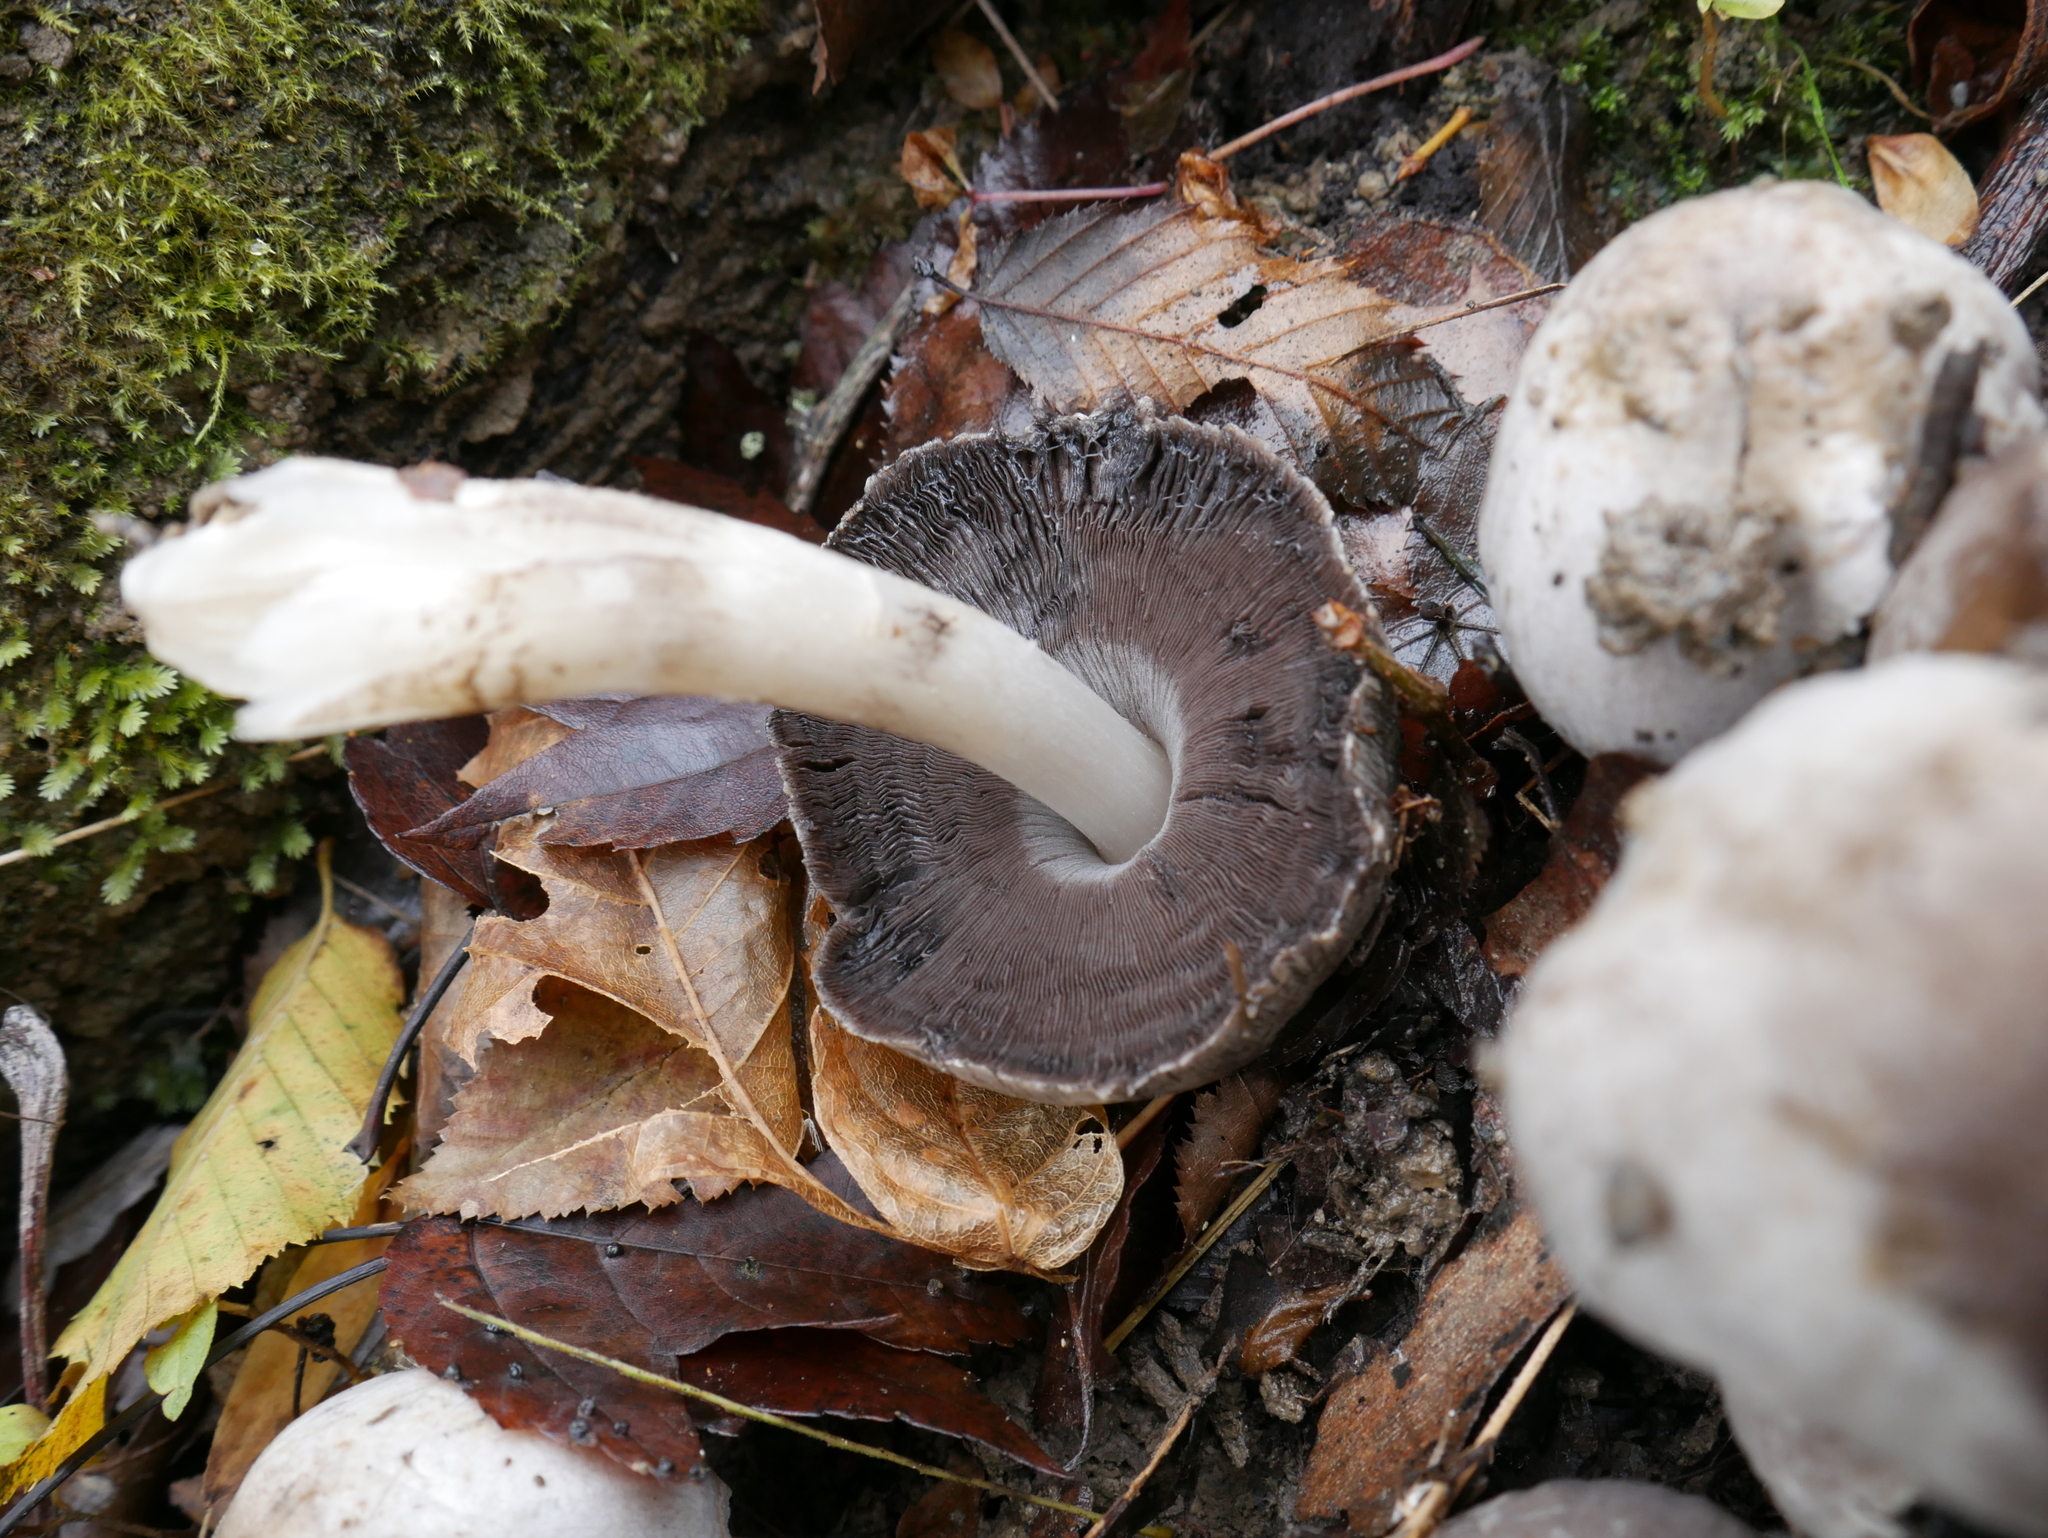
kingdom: Fungi
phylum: Basidiomycota
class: Agaricomycetes
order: Agaricales
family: Psathyrellaceae
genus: Coprinopsis
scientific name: Coprinopsis atramentaria
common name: Common ink-cap
